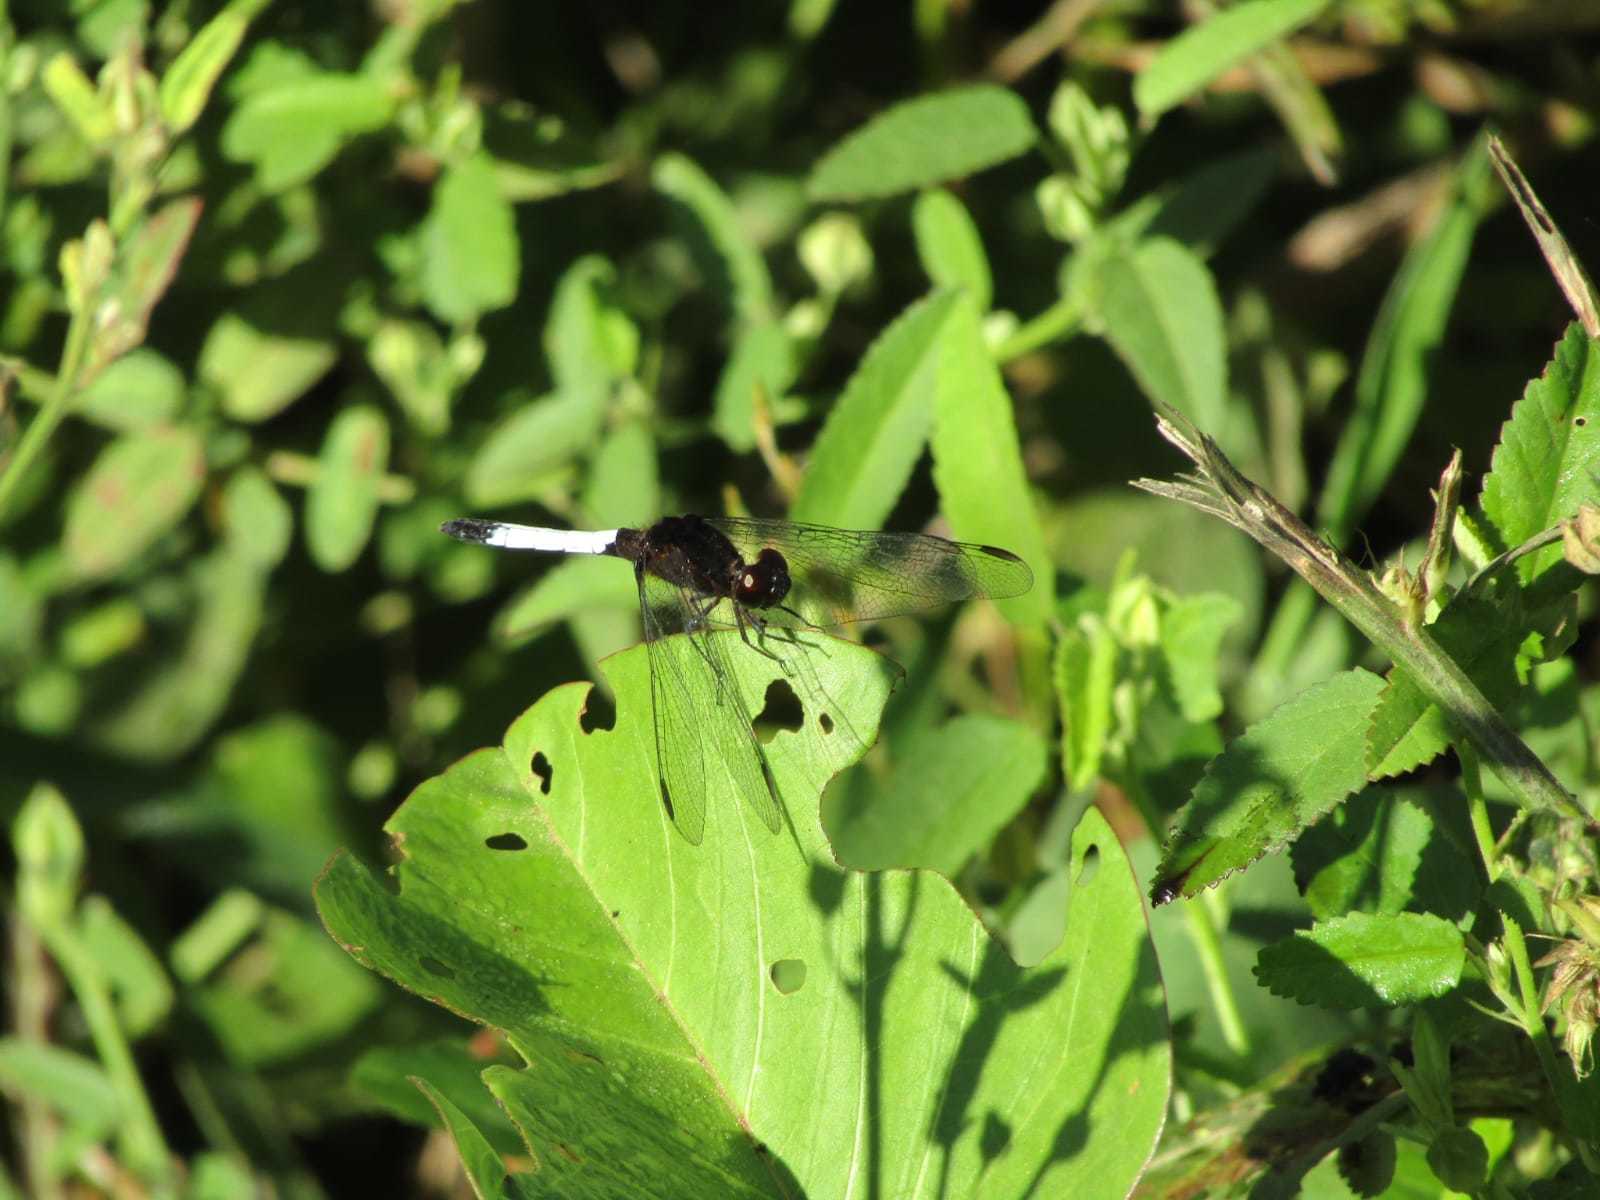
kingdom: Animalia
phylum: Arthropoda
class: Insecta
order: Odonata
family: Libellulidae
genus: Erythrodiplax
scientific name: Erythrodiplax unimaculata
